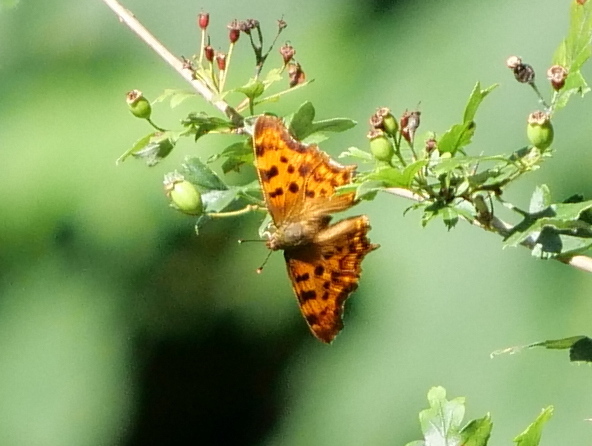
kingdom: Animalia
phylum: Arthropoda
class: Insecta
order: Lepidoptera
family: Nymphalidae
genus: Polygonia
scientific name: Polygonia c-album
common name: Comma
